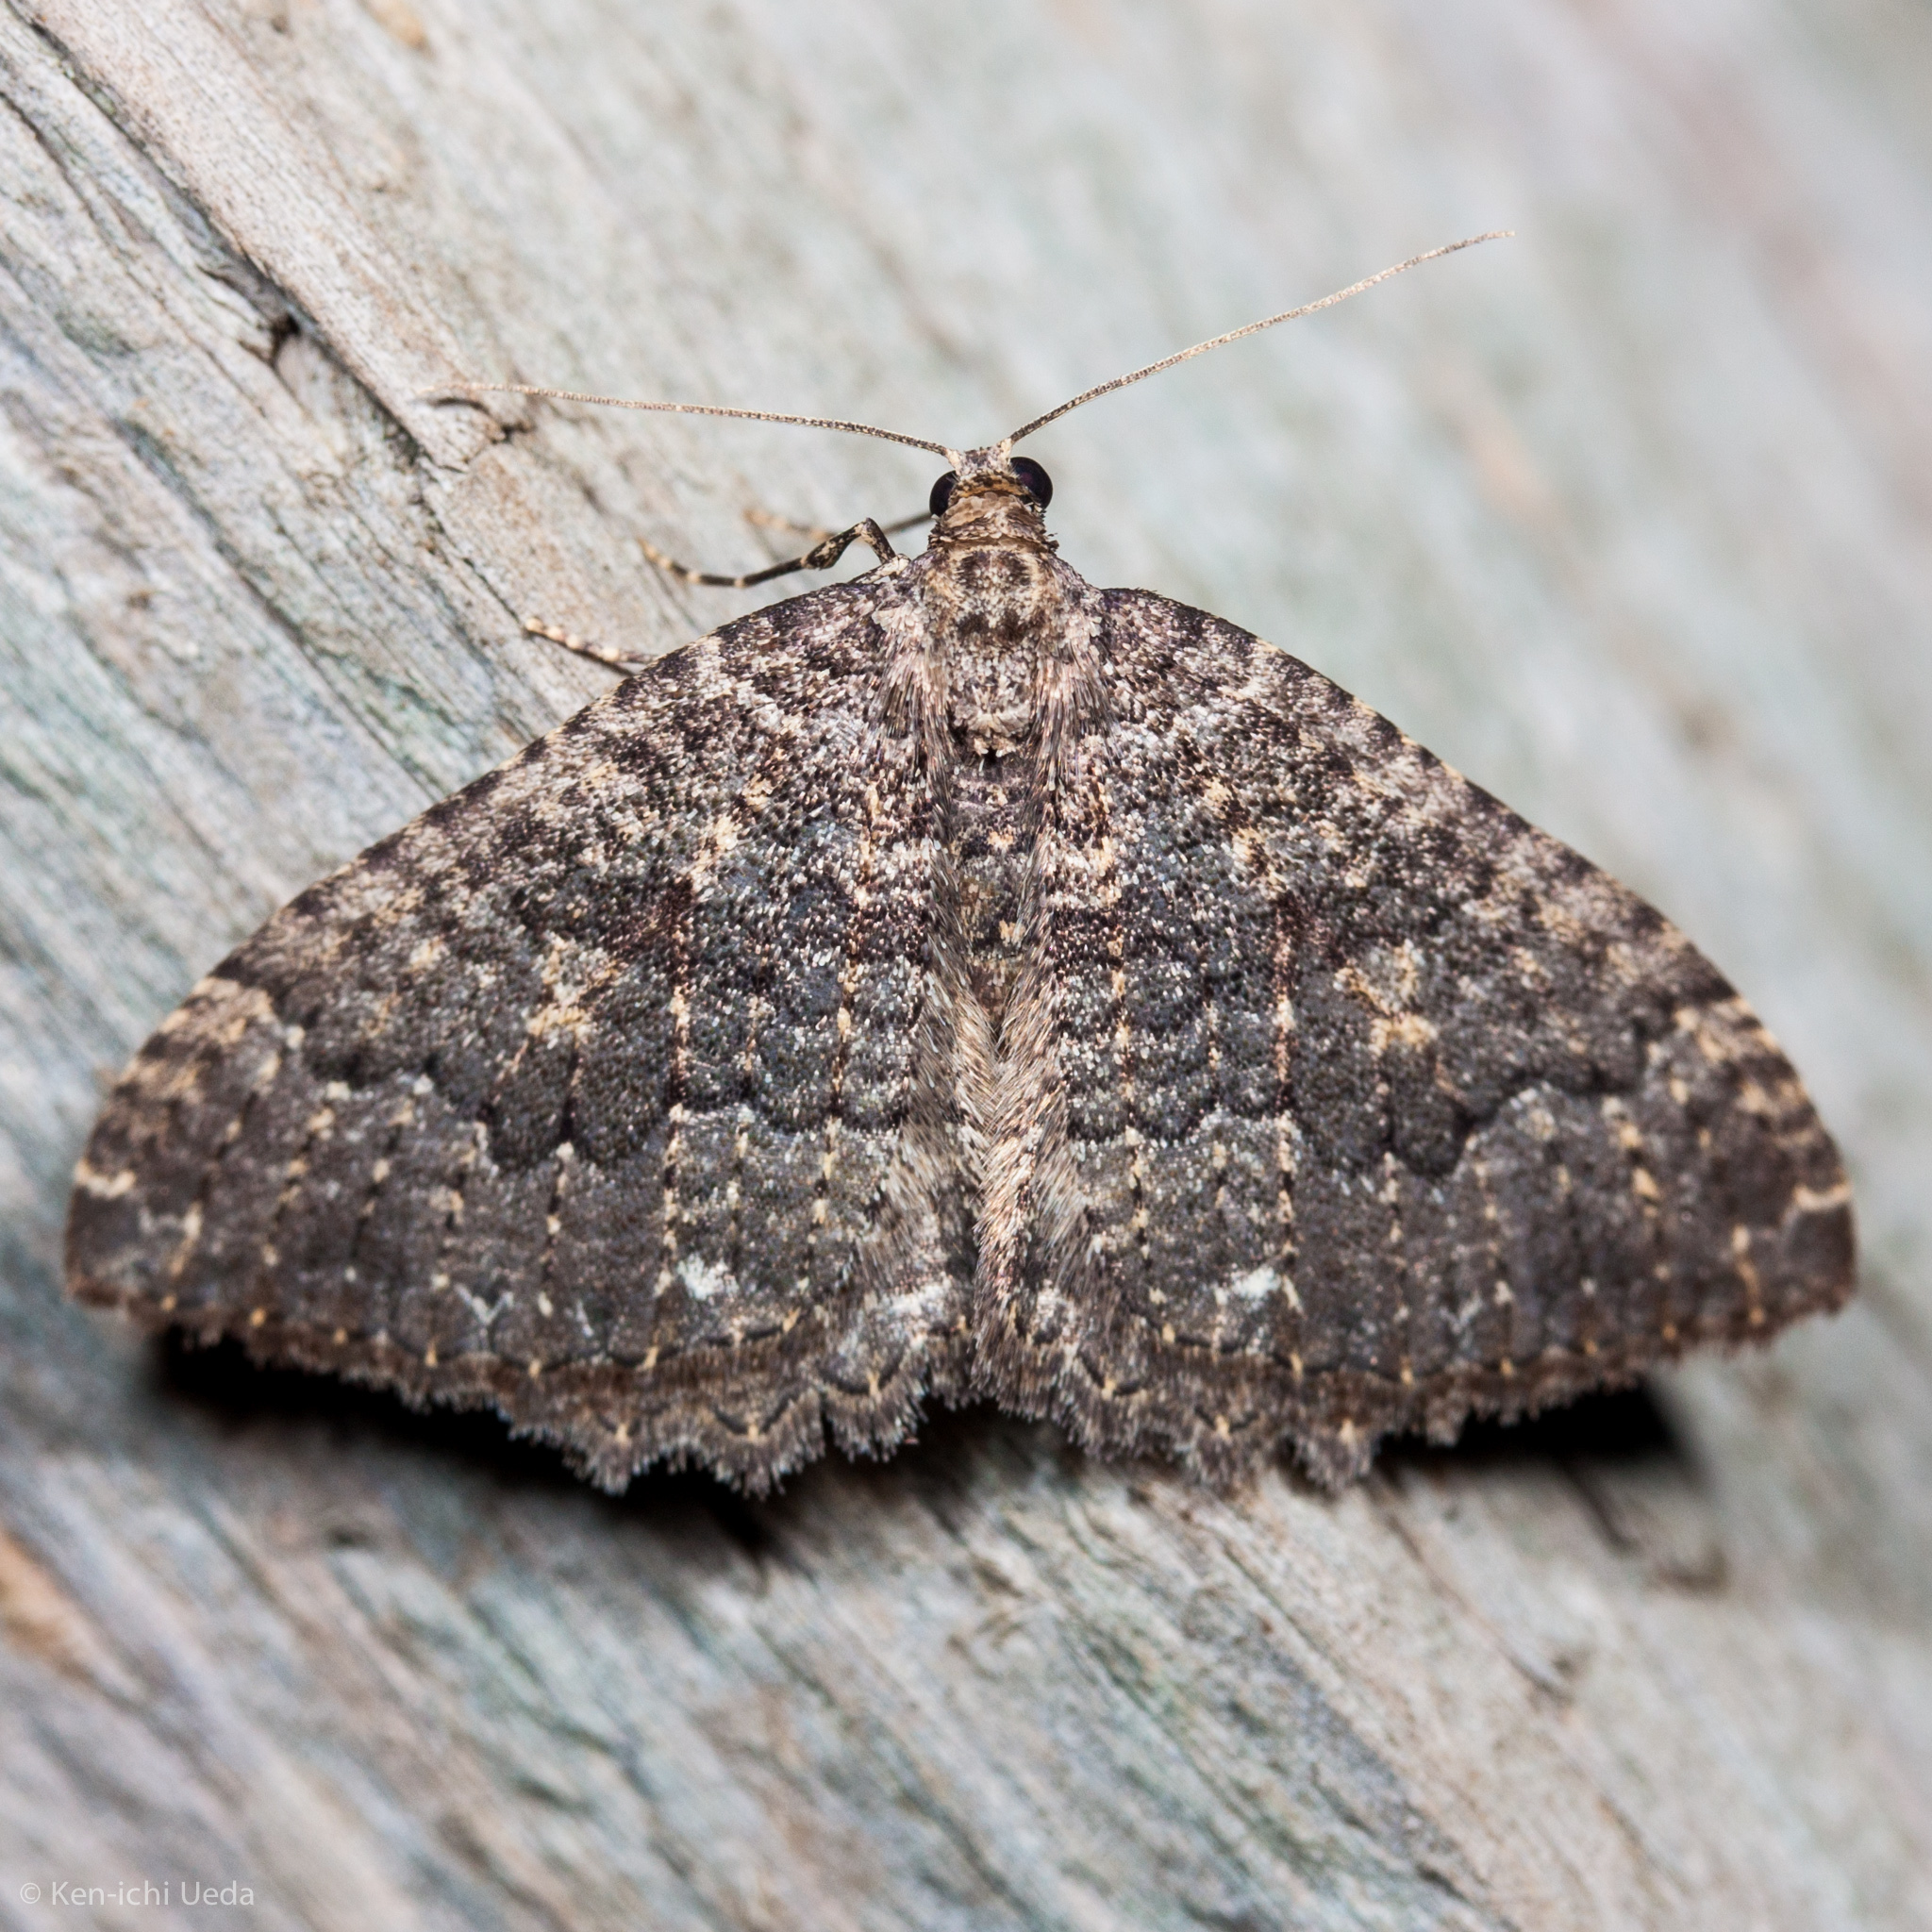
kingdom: Animalia
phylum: Arthropoda
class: Insecta
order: Lepidoptera
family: Geometridae
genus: Triphosa
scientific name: Triphosa californiata
